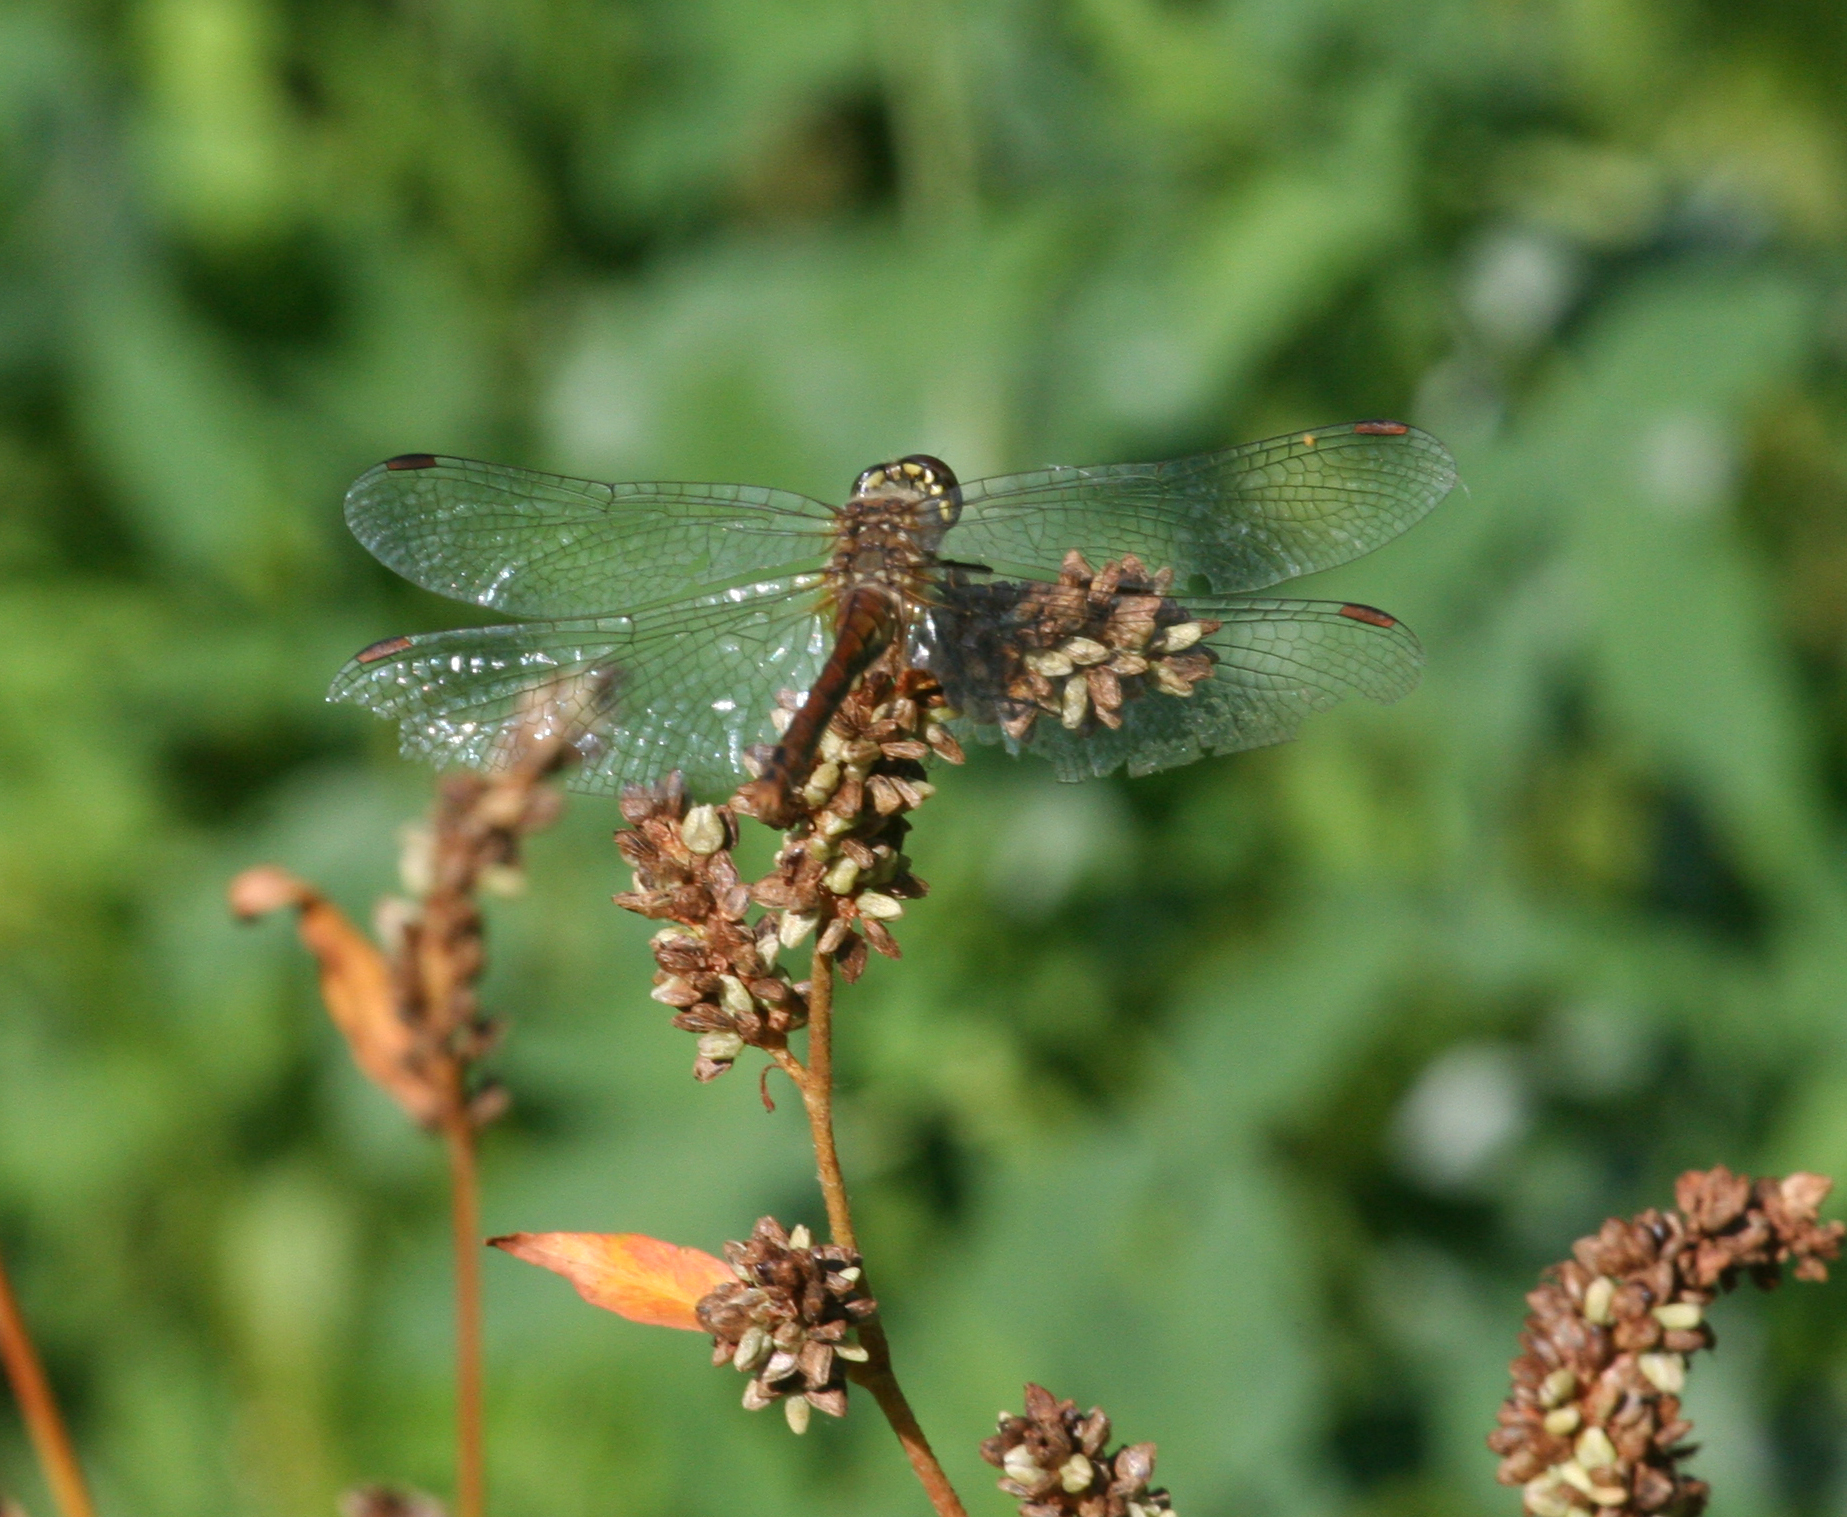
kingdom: Animalia
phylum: Arthropoda
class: Insecta
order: Odonata
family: Libellulidae
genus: Sympetrum
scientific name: Sympetrum sanguineum
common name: Ruddy darter
